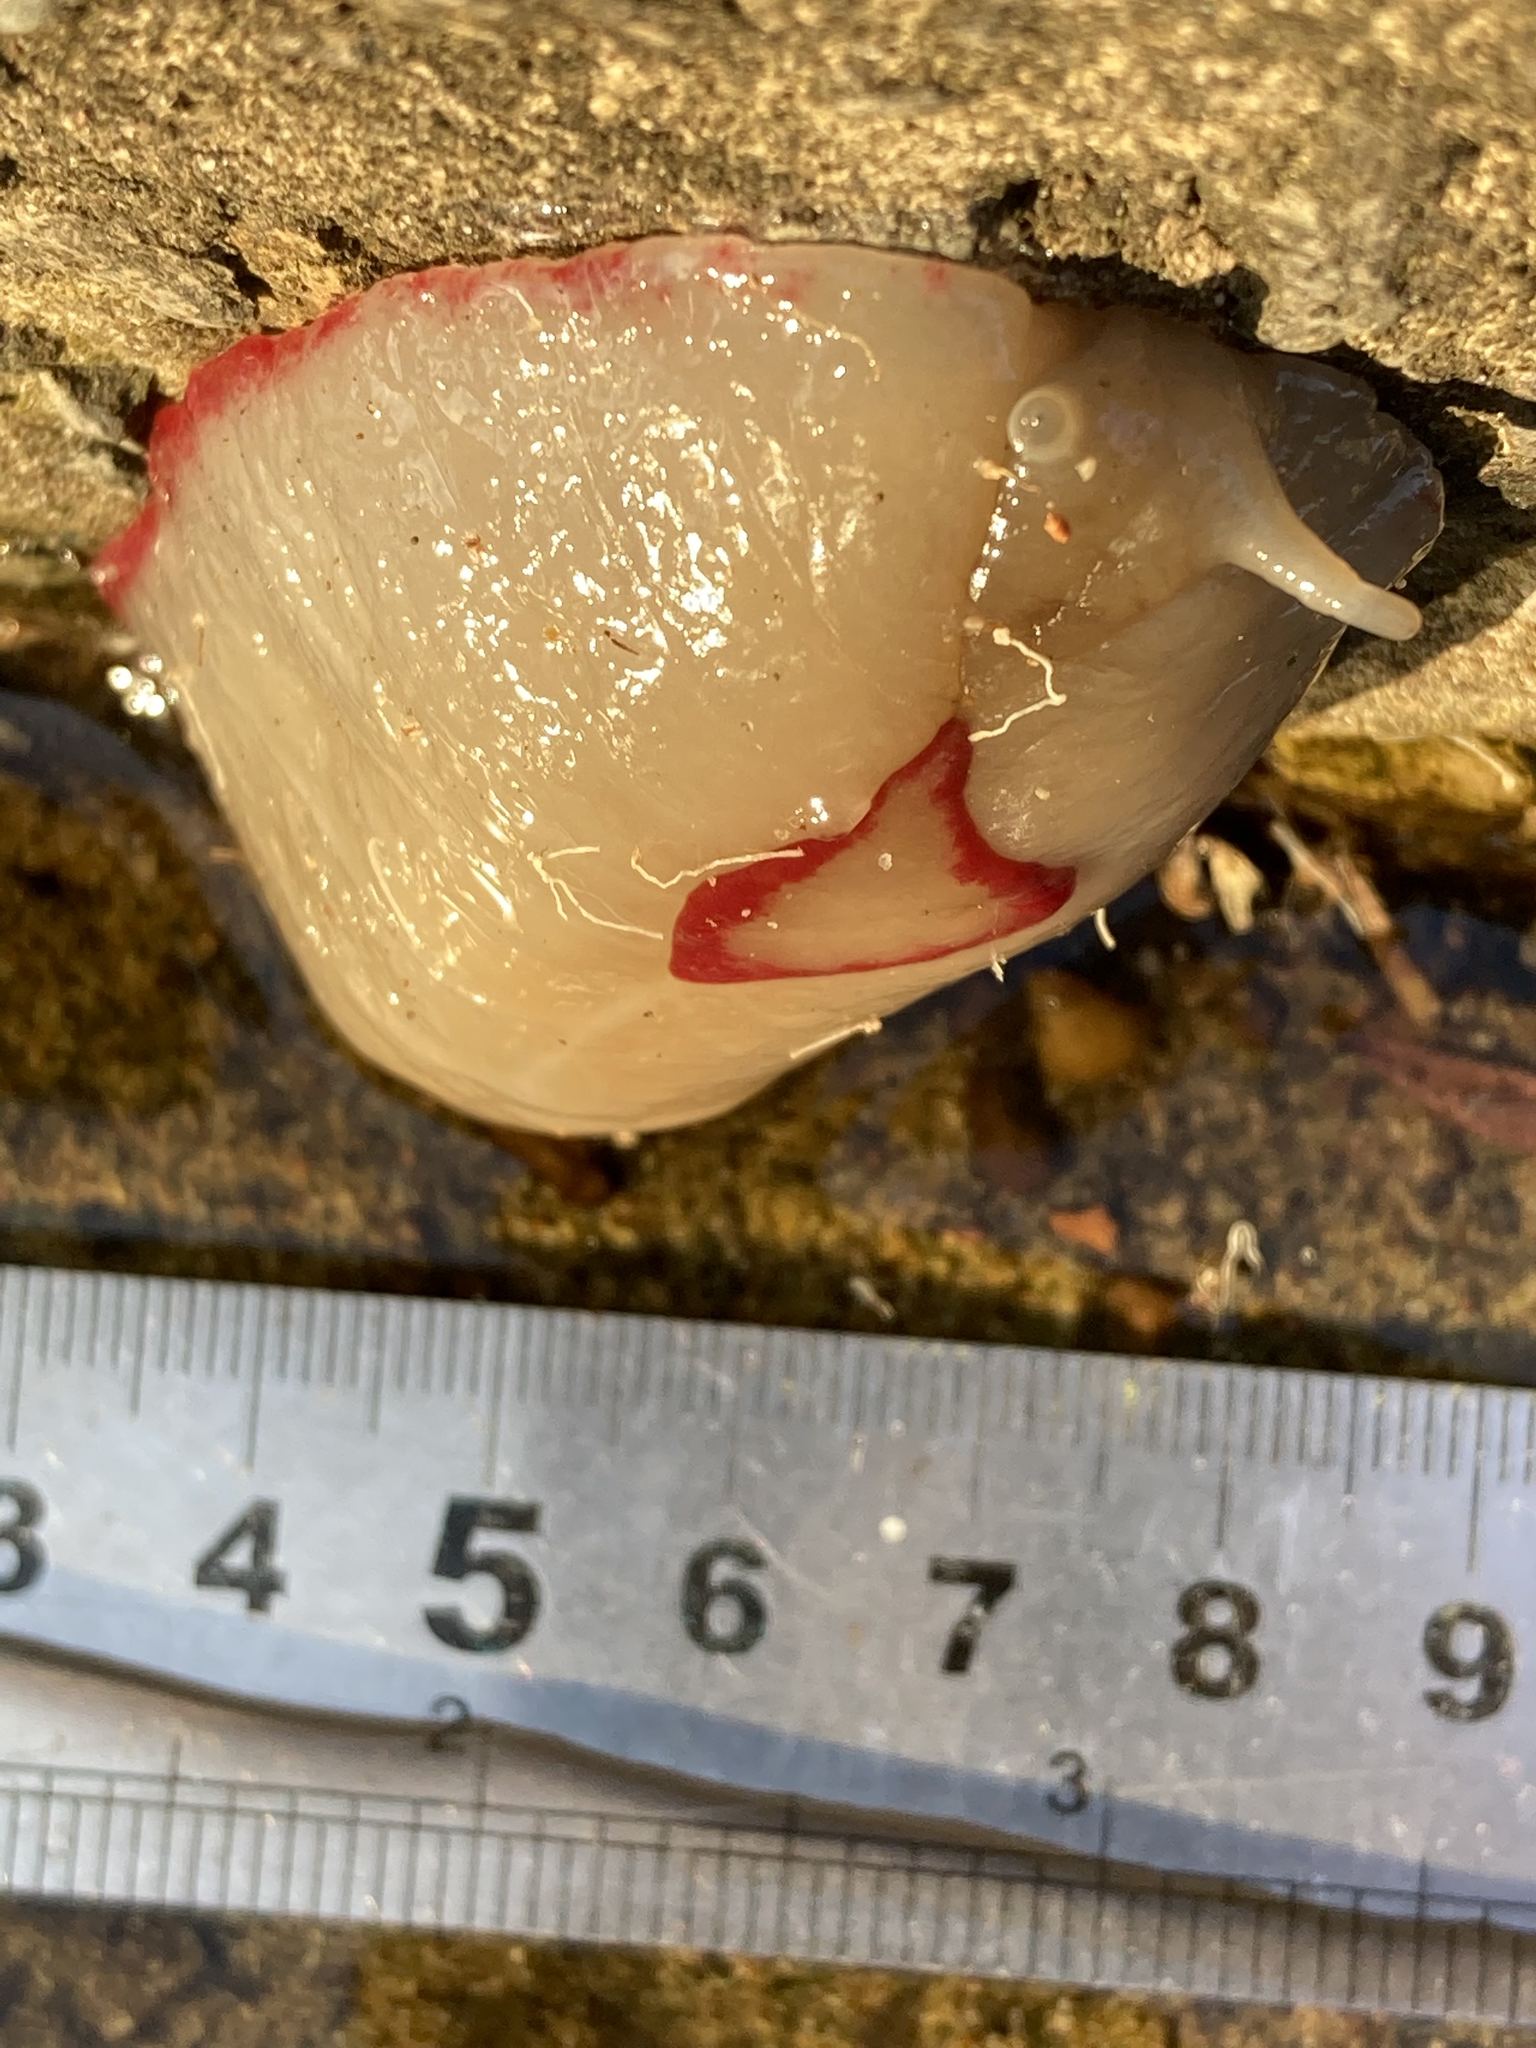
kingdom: Animalia
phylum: Mollusca
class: Gastropoda
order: Stylommatophora
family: Athoracophoridae
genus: Triboniophorus
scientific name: Triboniophorus graeffei
